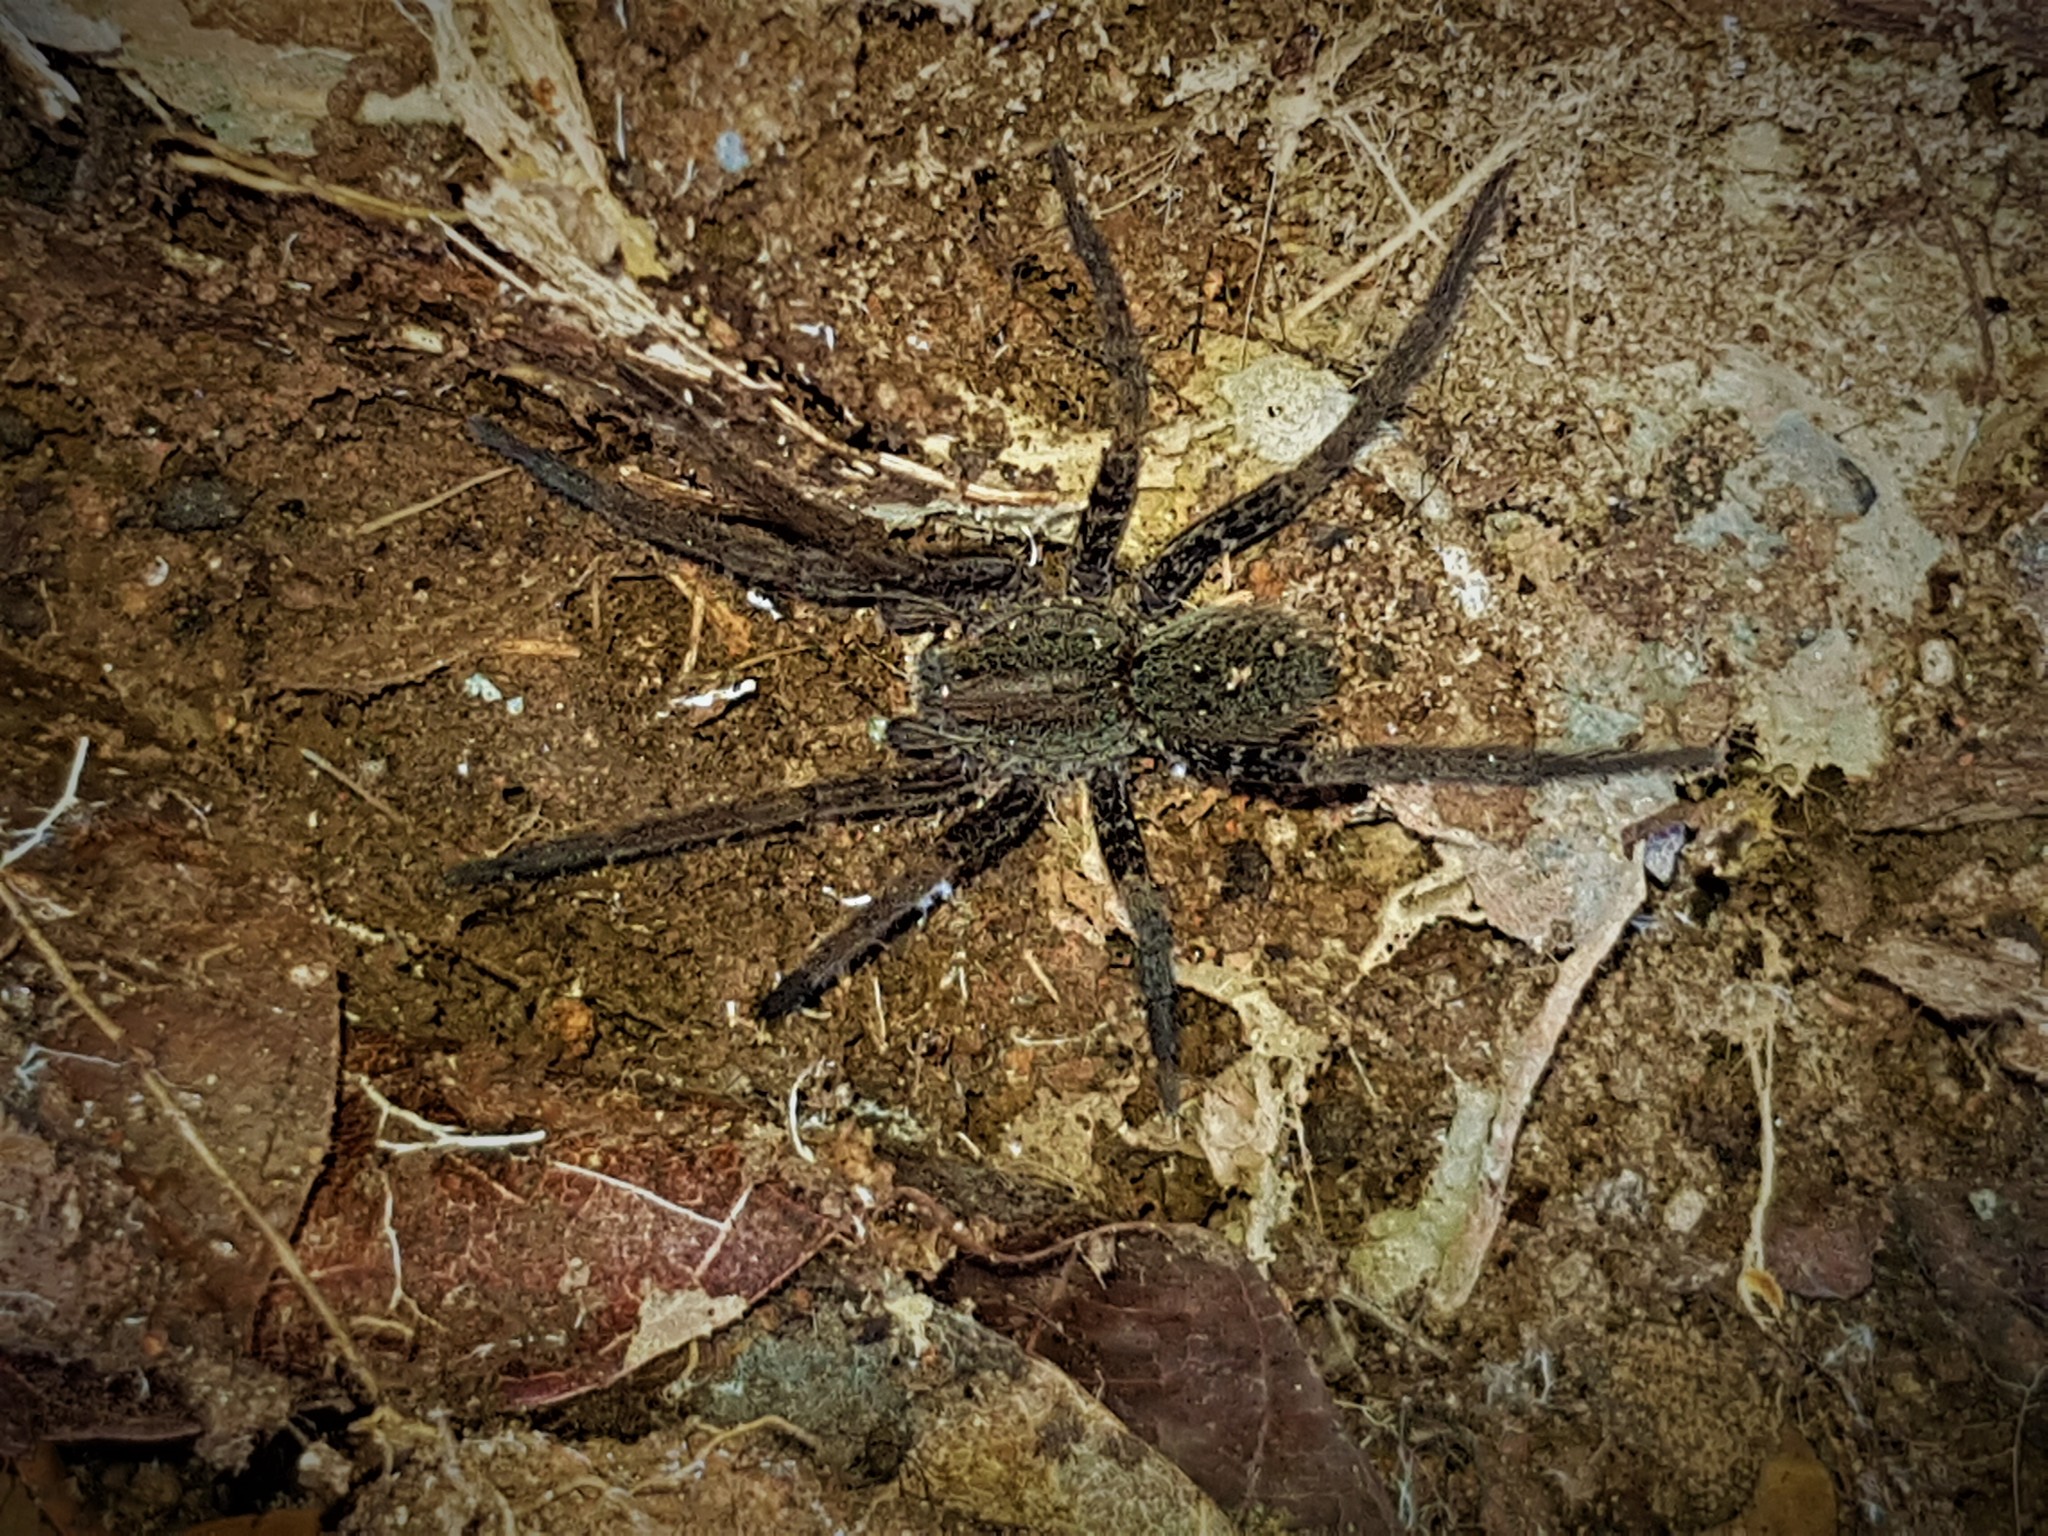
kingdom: Animalia
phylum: Arthropoda
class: Arachnida
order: Araneae
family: Ctenidae
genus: Ancylometes
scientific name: Ancylometes
